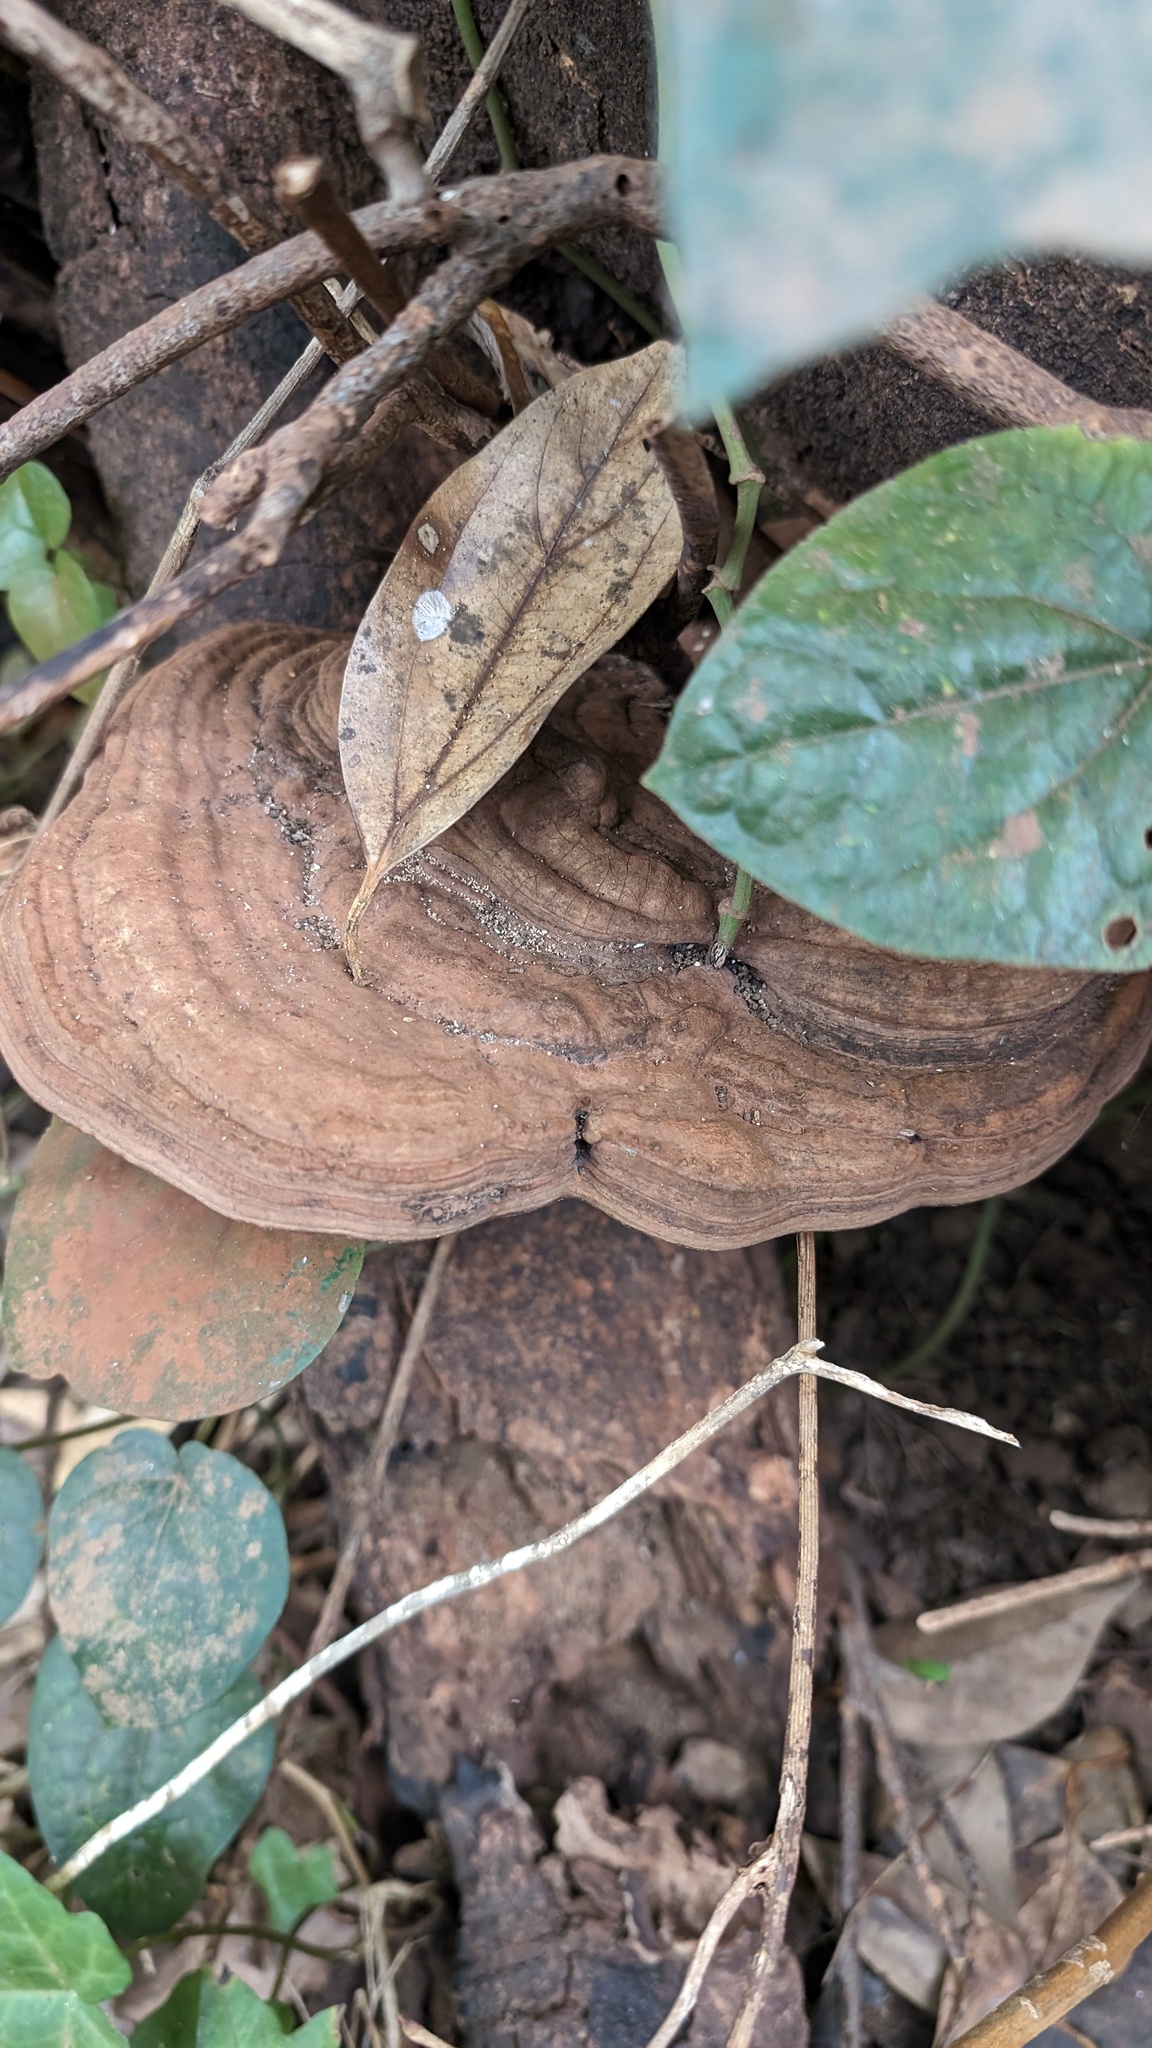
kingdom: Fungi
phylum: Basidiomycota
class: Agaricomycetes
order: Polyporales
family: Polyporaceae
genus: Ganoderma
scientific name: Ganoderma applanatum
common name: Artist's bracket
